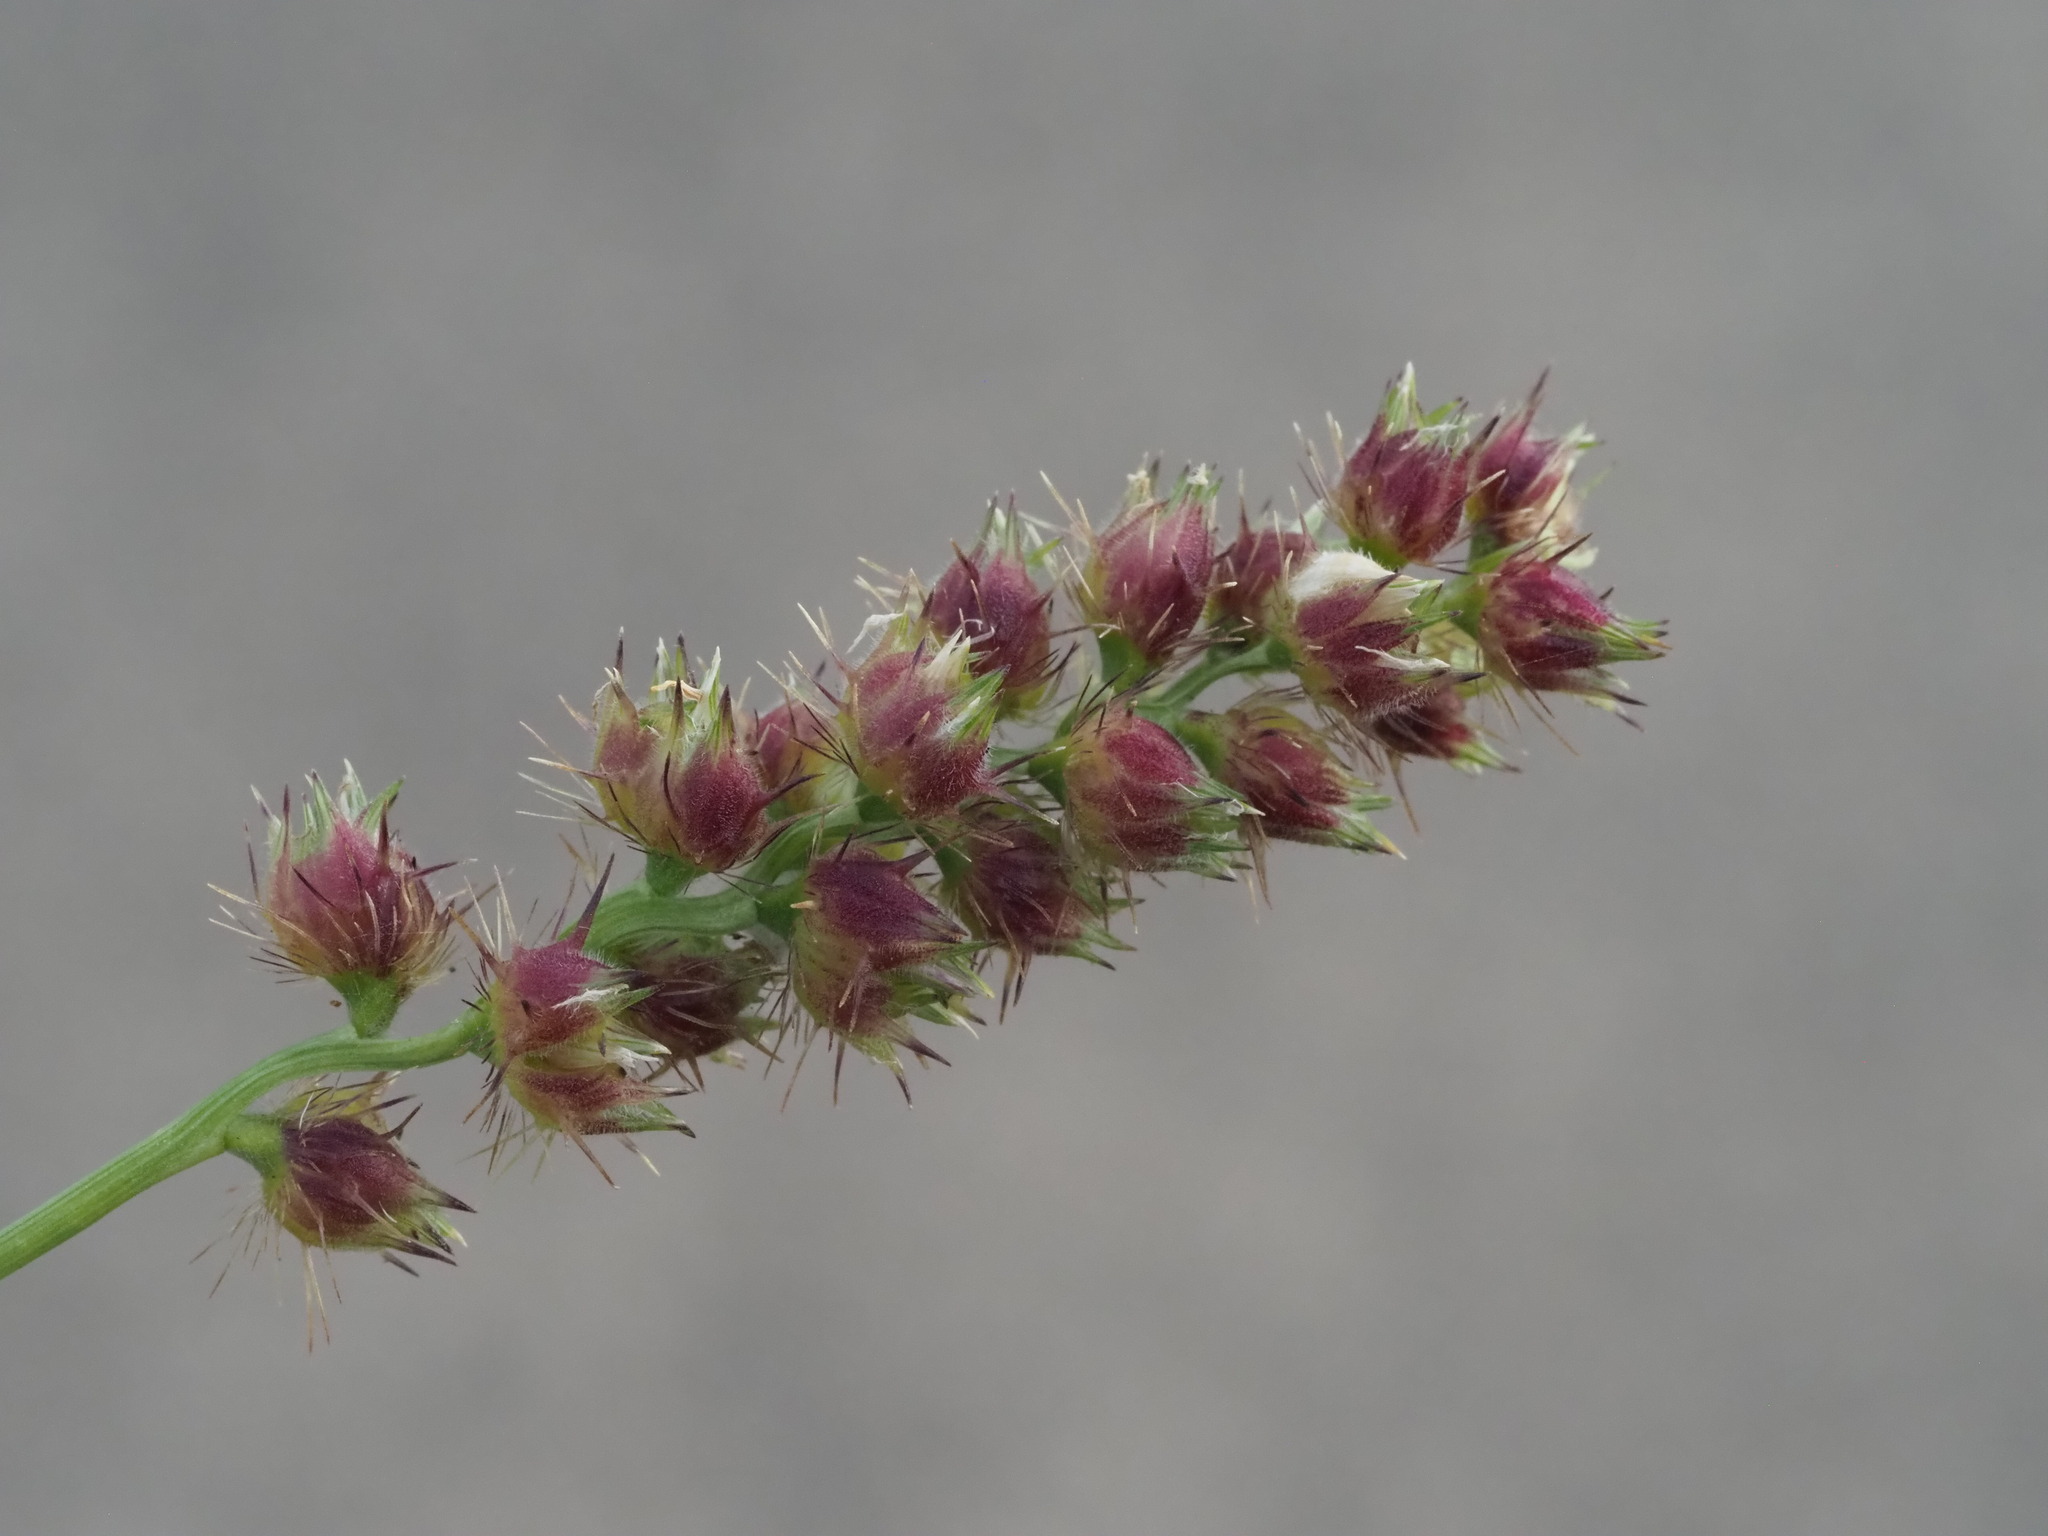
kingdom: Plantae
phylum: Tracheophyta
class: Liliopsida
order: Poales
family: Poaceae
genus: Cenchrus
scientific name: Cenchrus echinatus
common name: Southern sandbur
